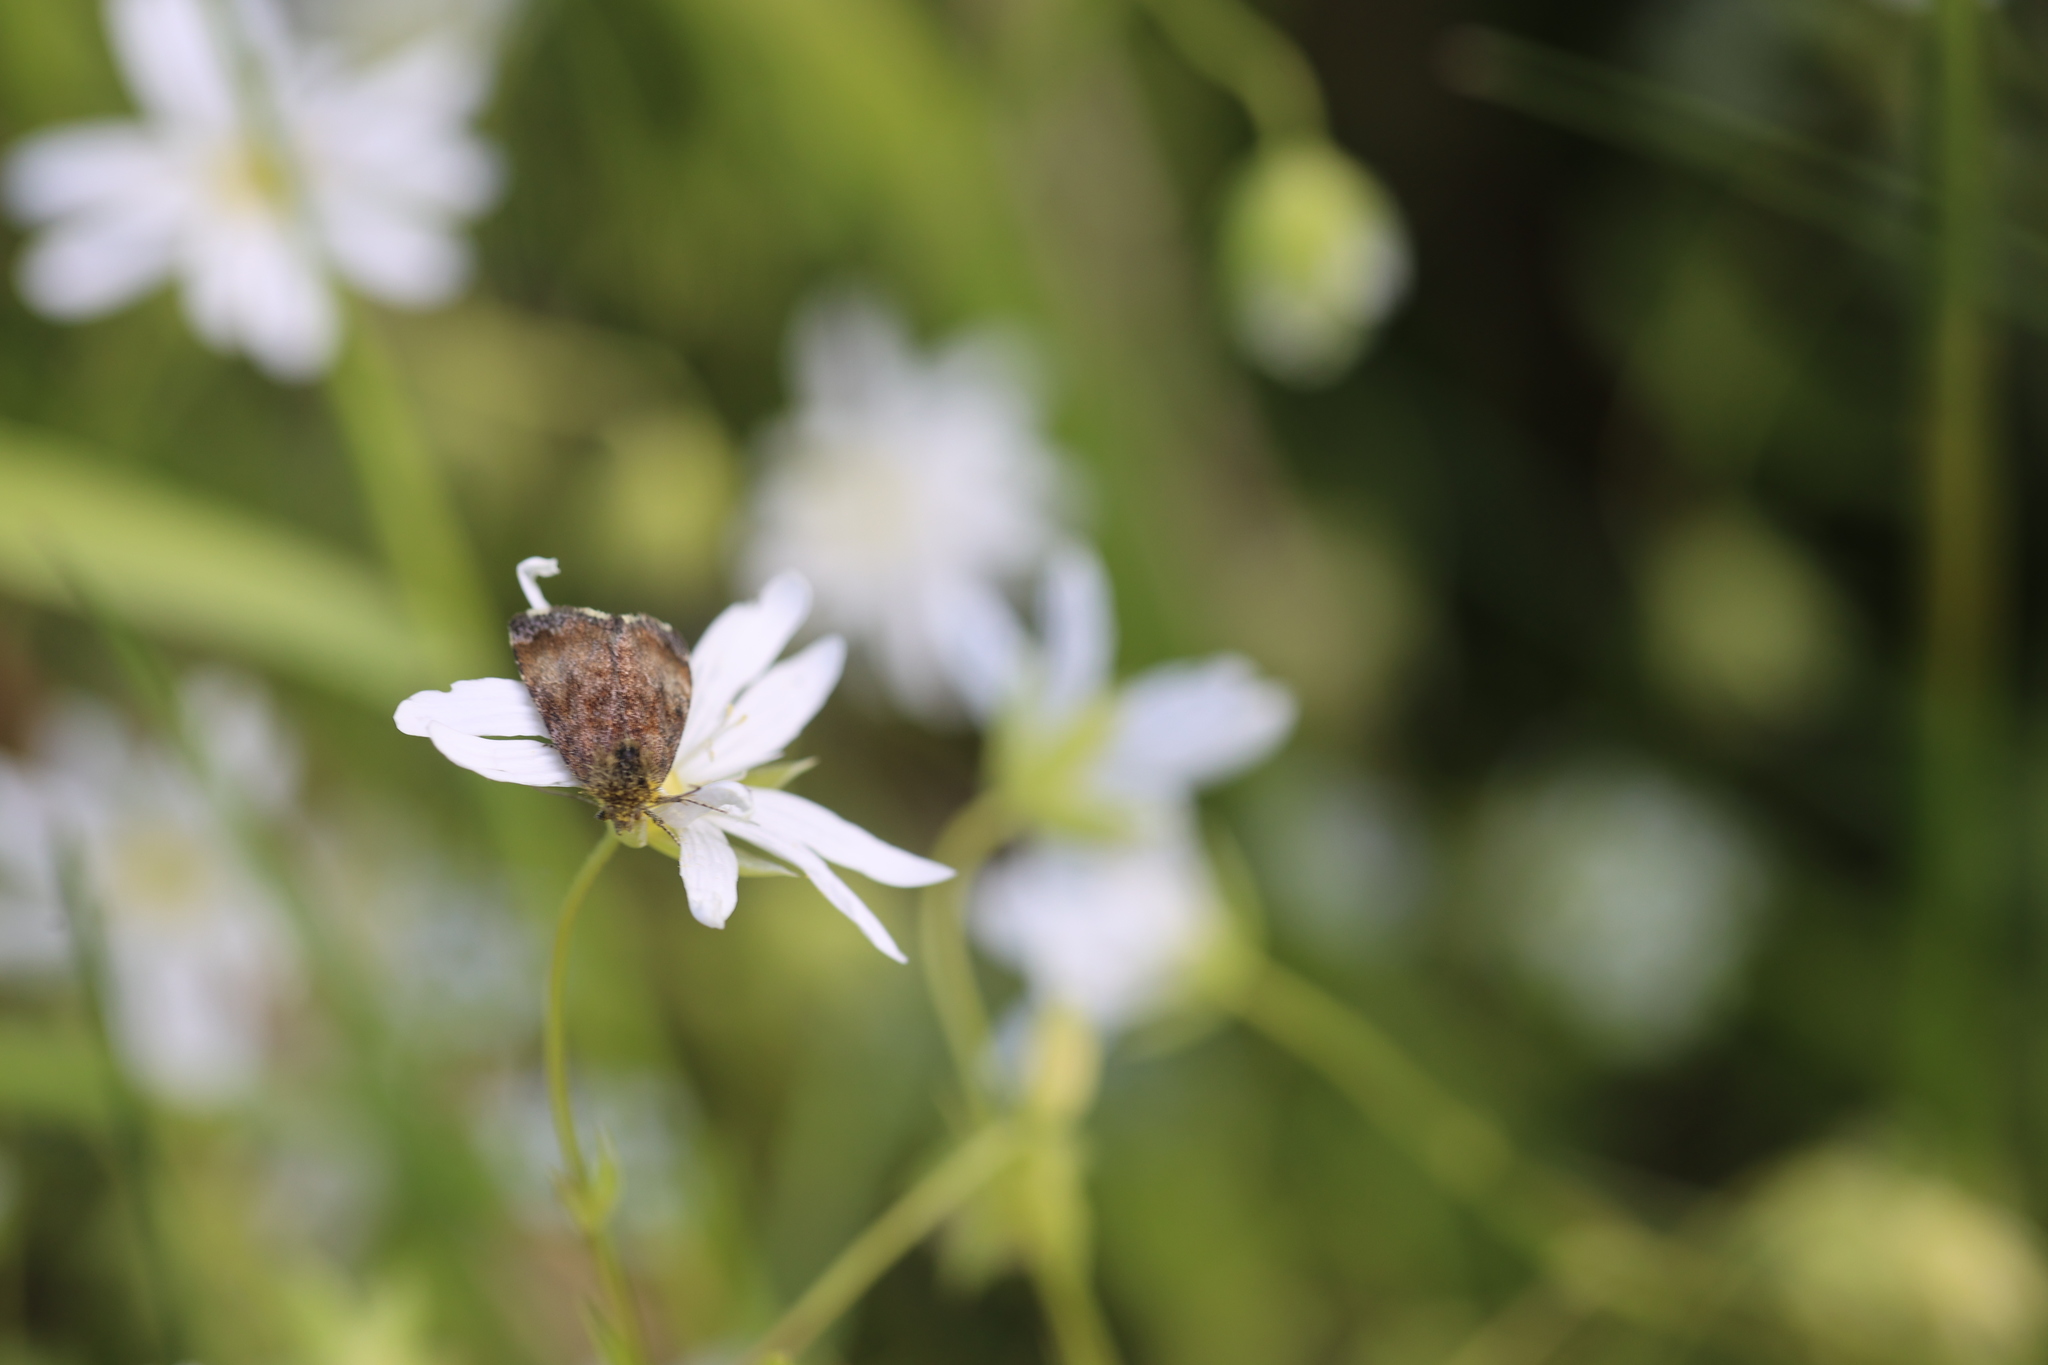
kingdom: Animalia
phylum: Arthropoda
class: Insecta
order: Lepidoptera
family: Noctuidae
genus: Panemeria
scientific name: Panemeria tenebrata
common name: Small yellow underwing
